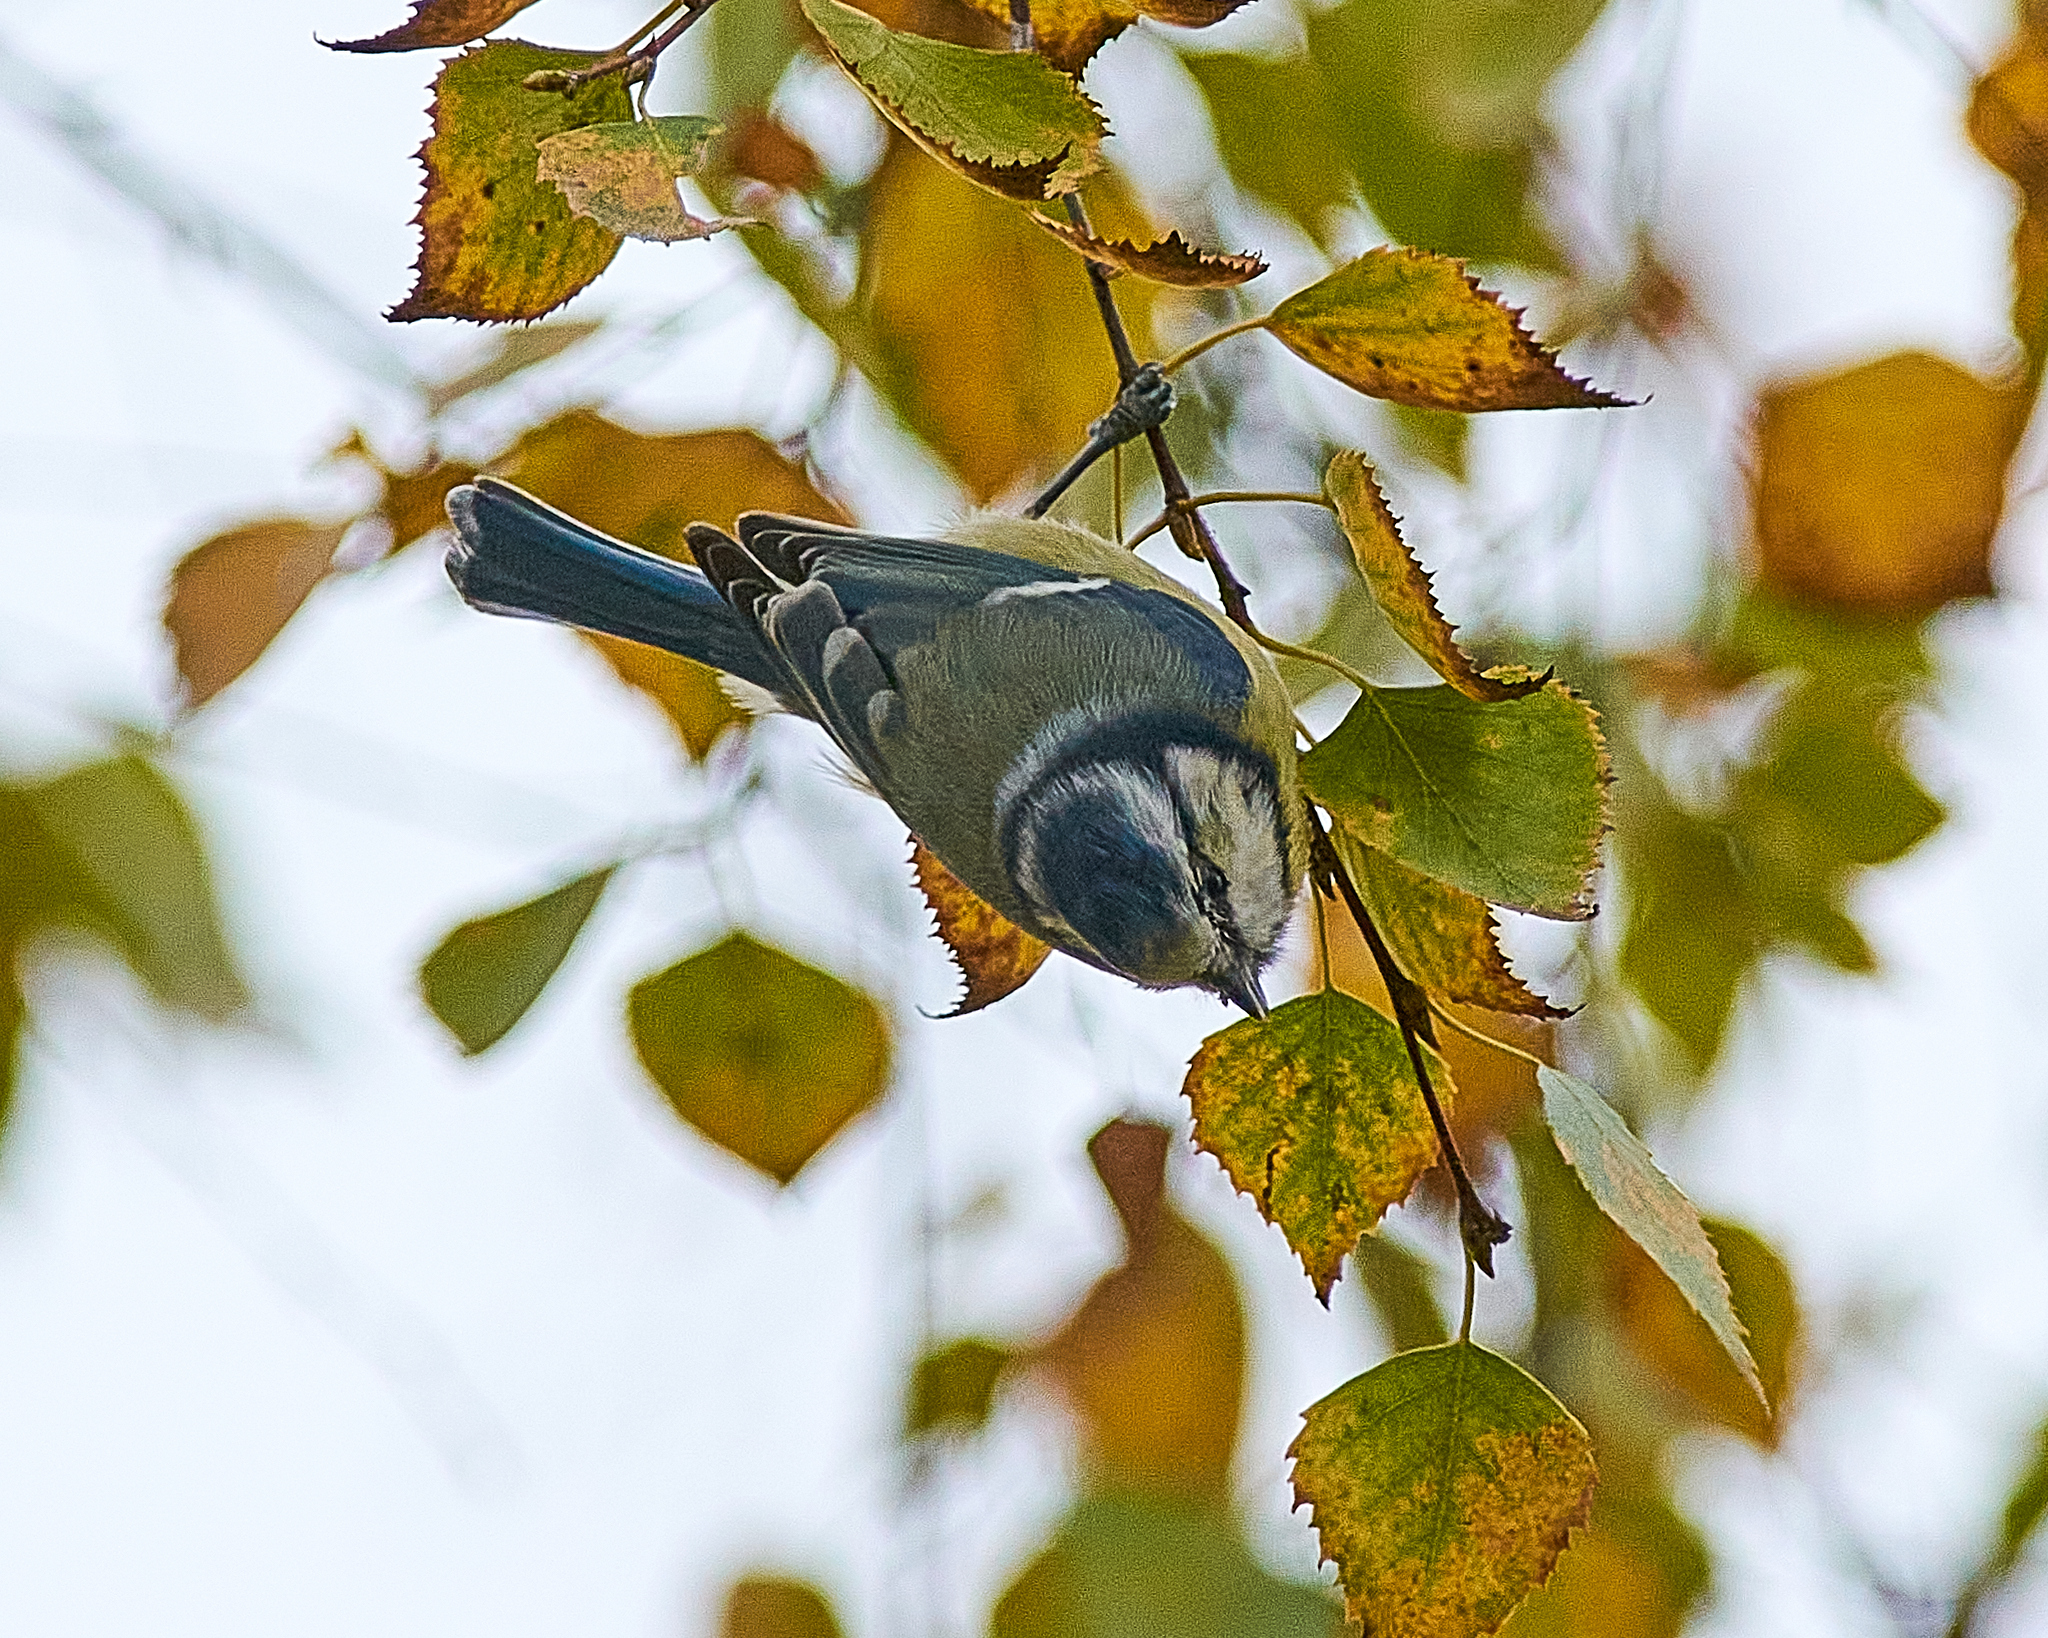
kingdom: Animalia
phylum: Chordata
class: Aves
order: Passeriformes
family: Paridae
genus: Cyanistes
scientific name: Cyanistes caeruleus
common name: Eurasian blue tit
